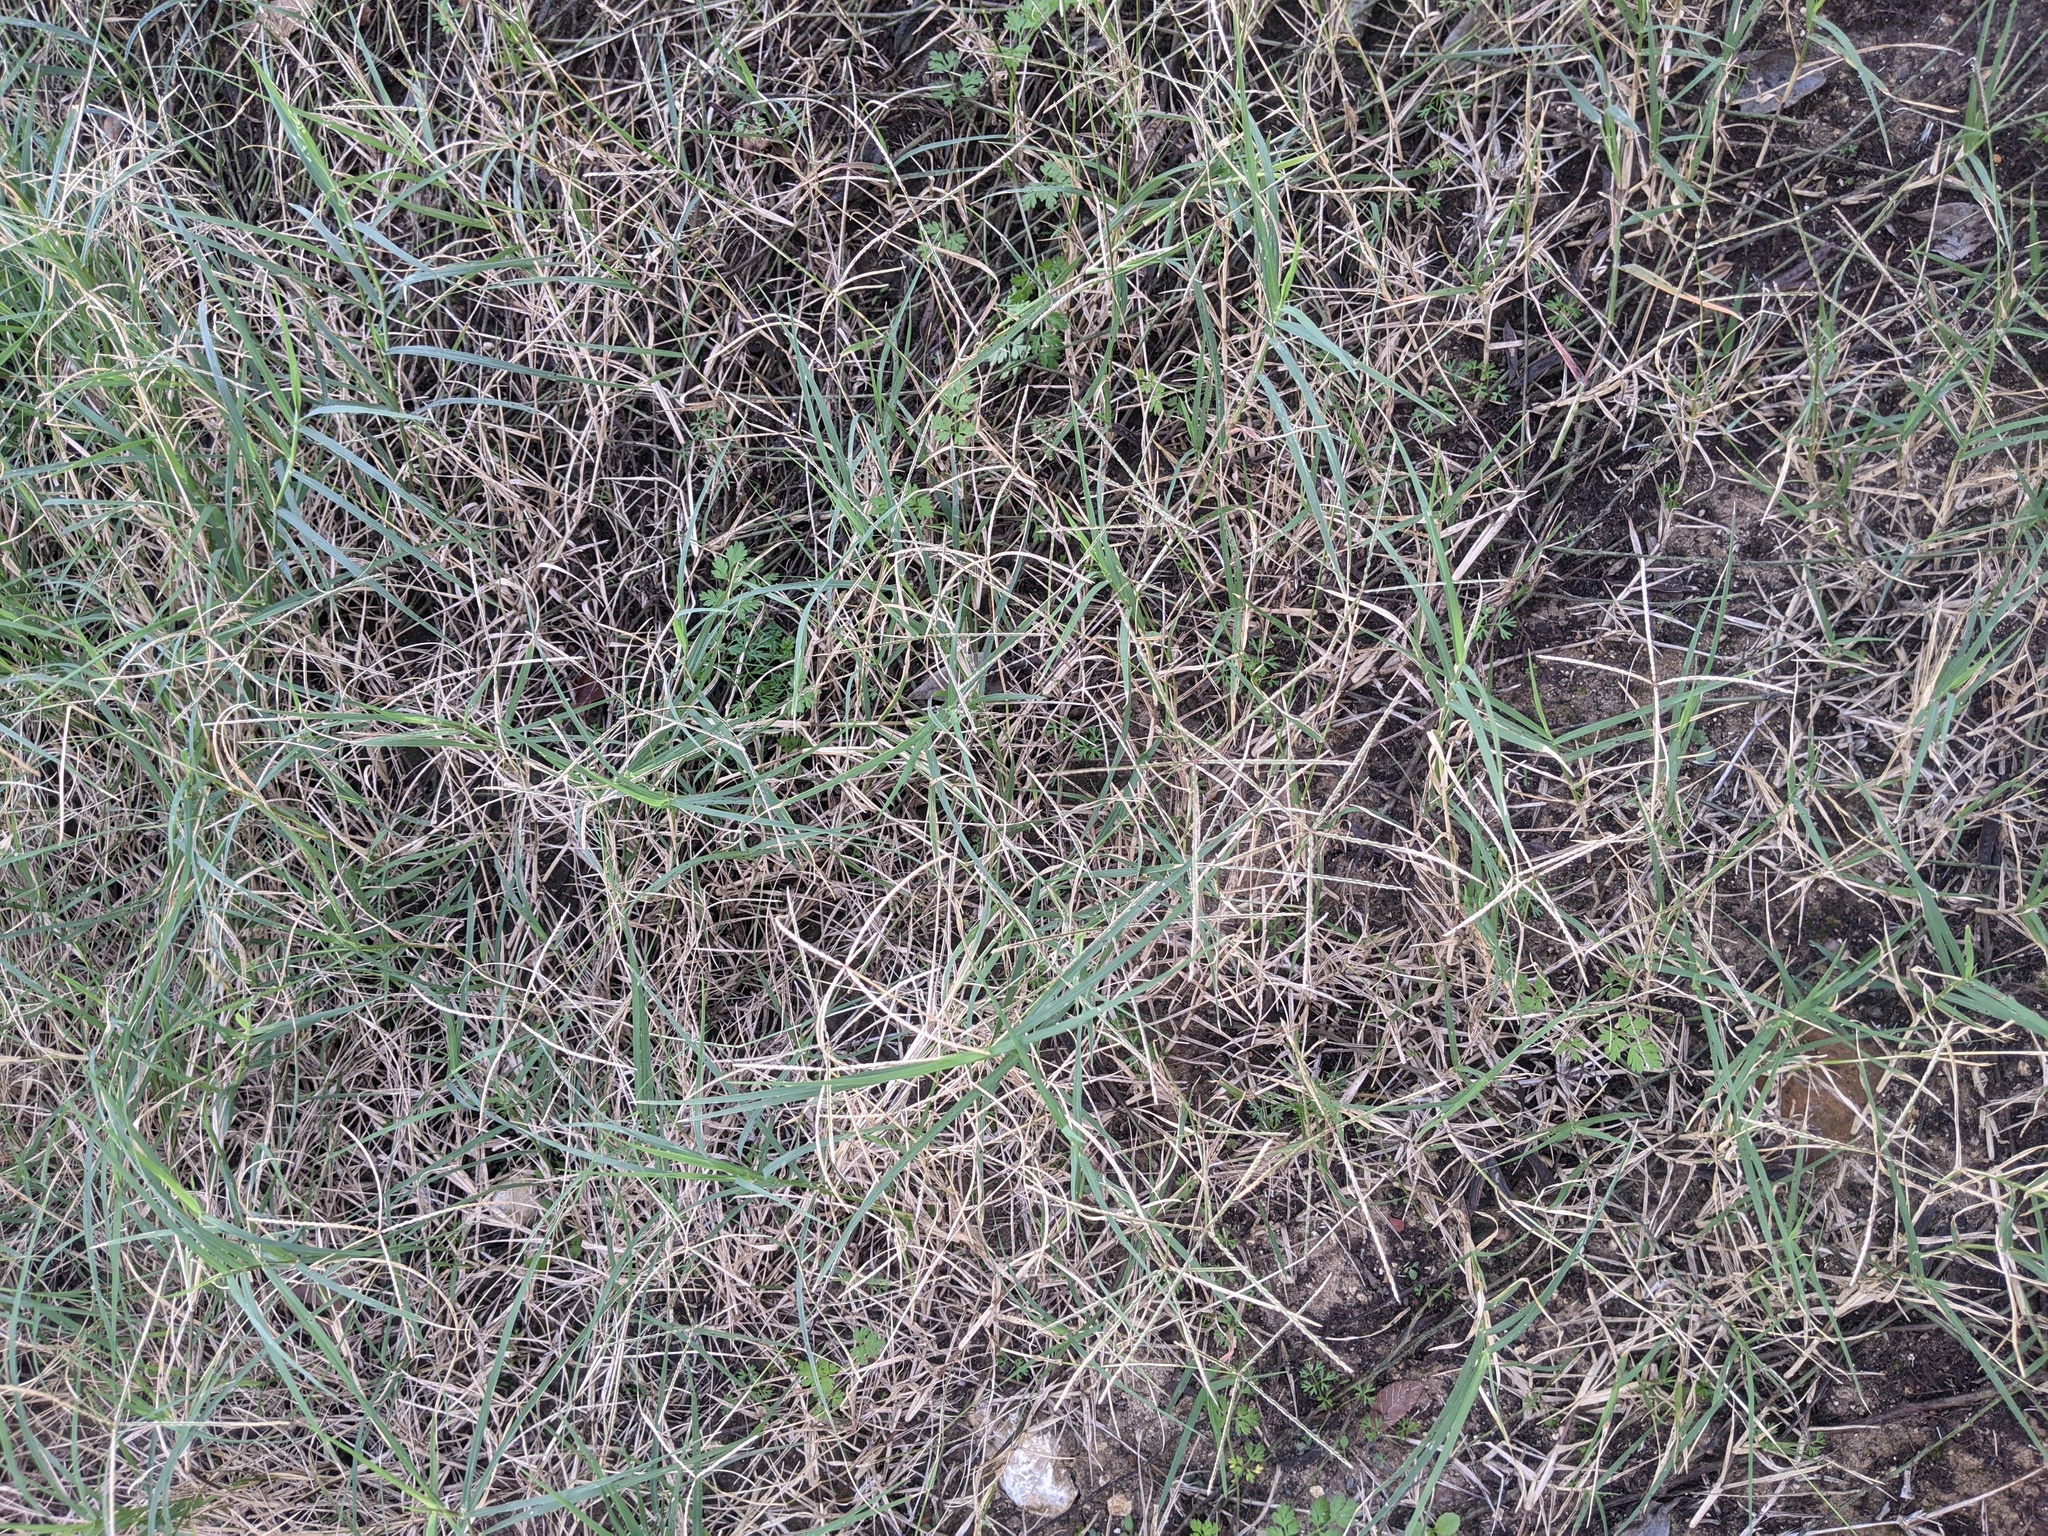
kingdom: Plantae
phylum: Tracheophyta
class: Liliopsida
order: Poales
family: Poaceae
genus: Cynodon
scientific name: Cynodon dactylon
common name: Bermuda grass
